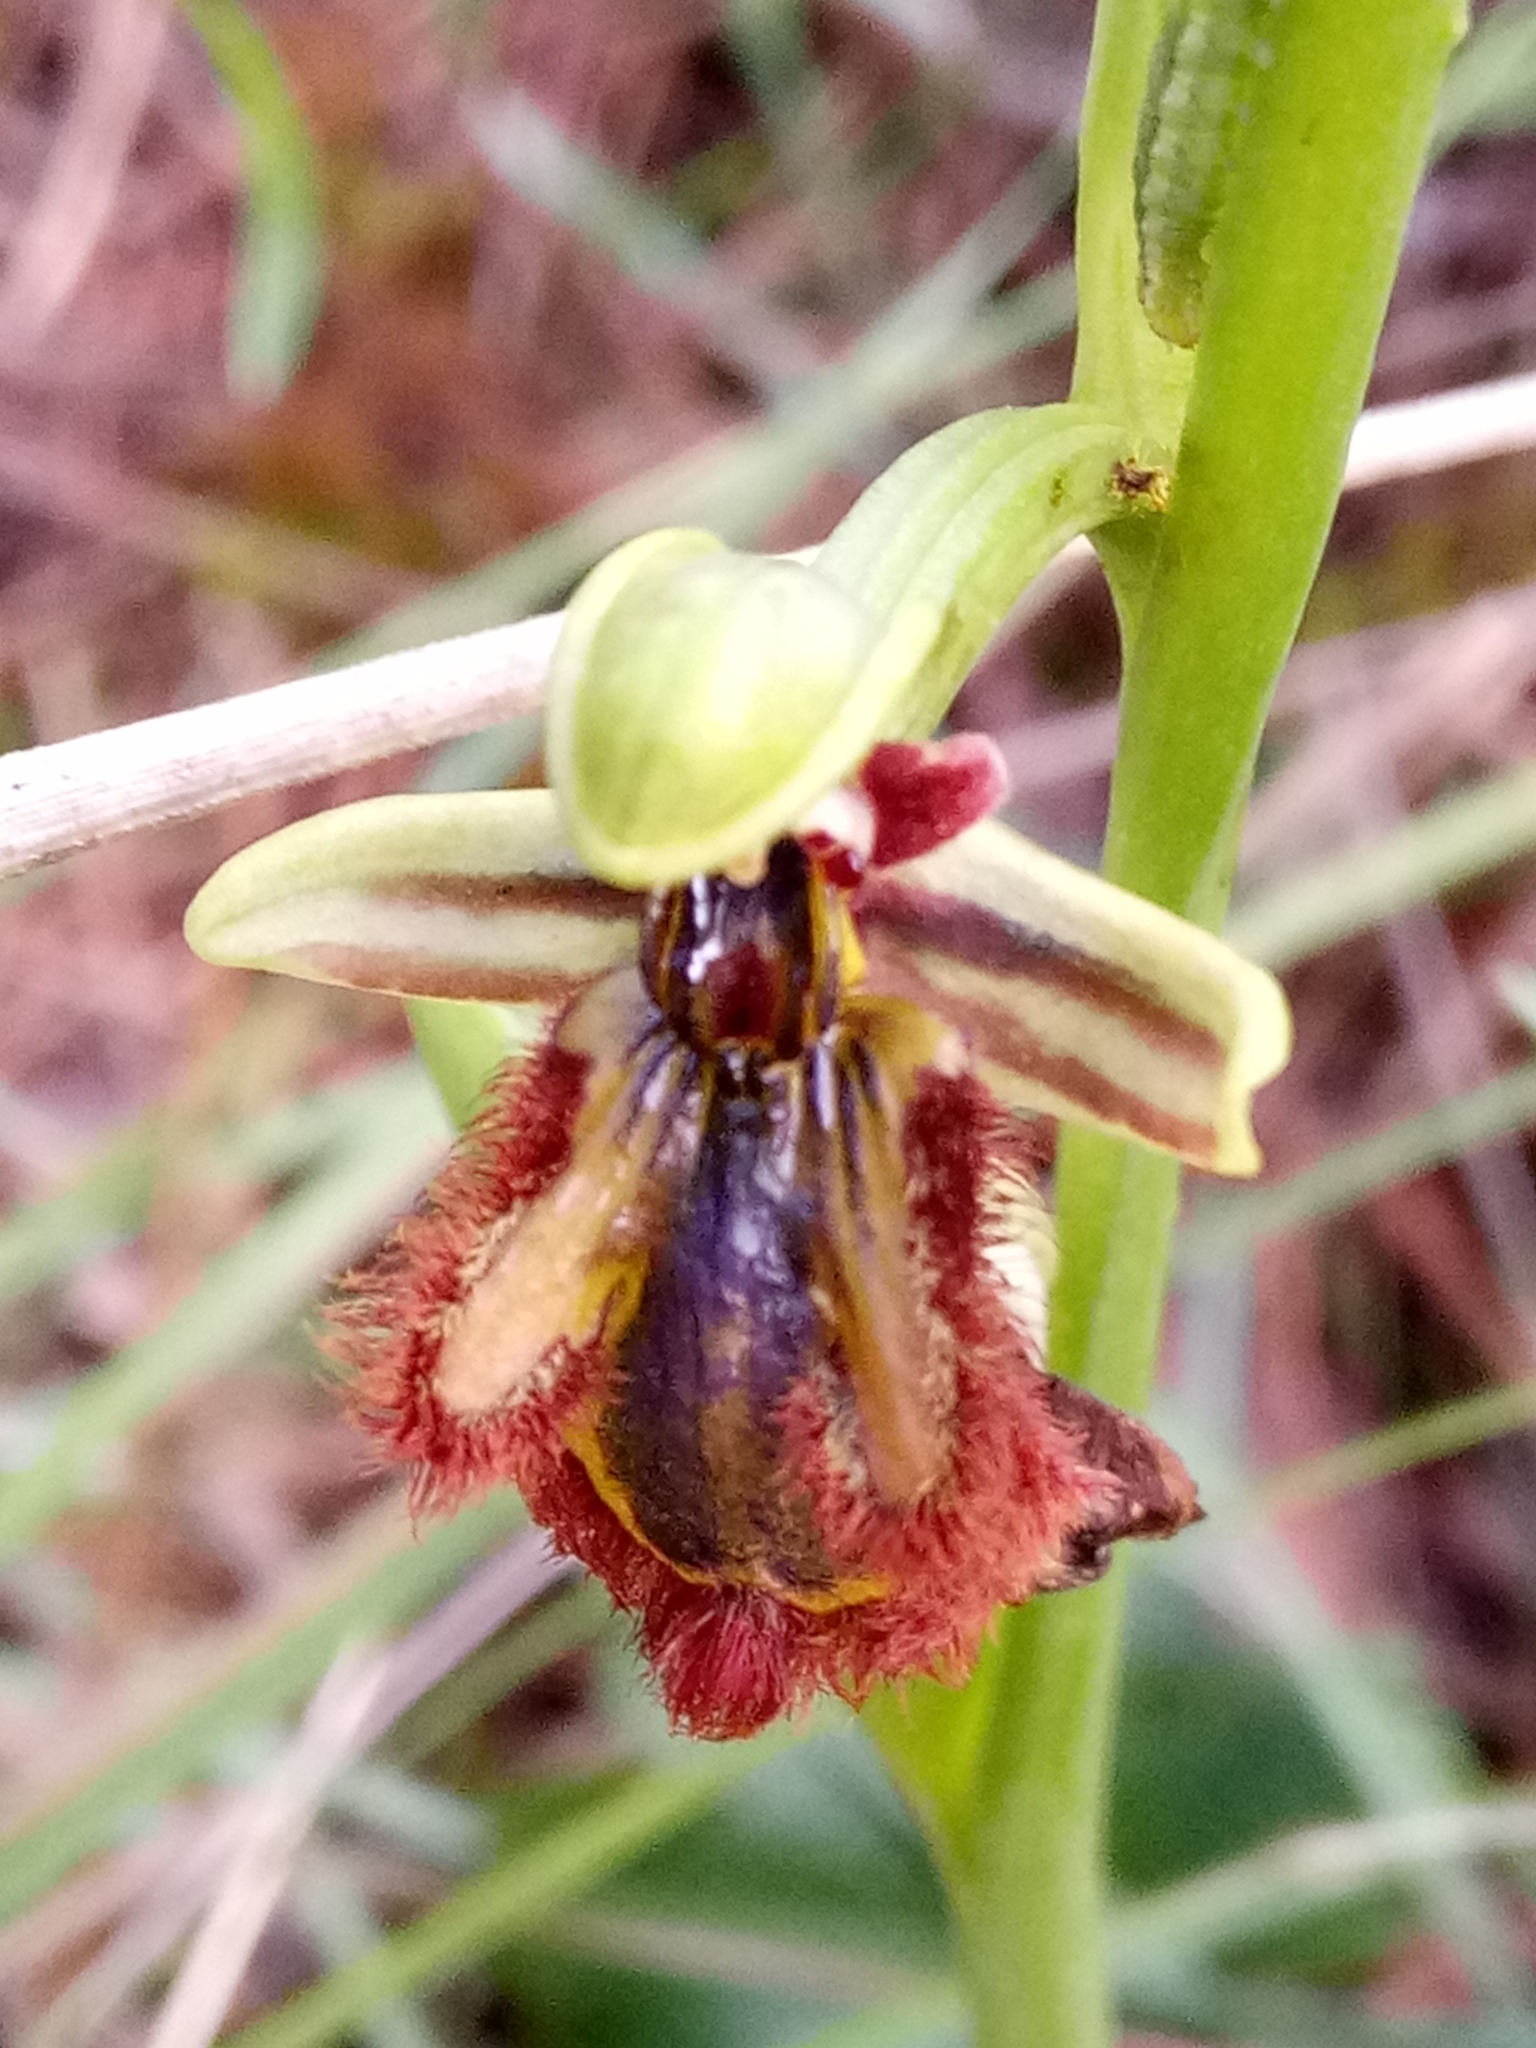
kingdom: Plantae
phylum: Tracheophyta
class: Liliopsida
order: Asparagales
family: Orchidaceae
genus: Ophrys
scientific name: Ophrys speculum
